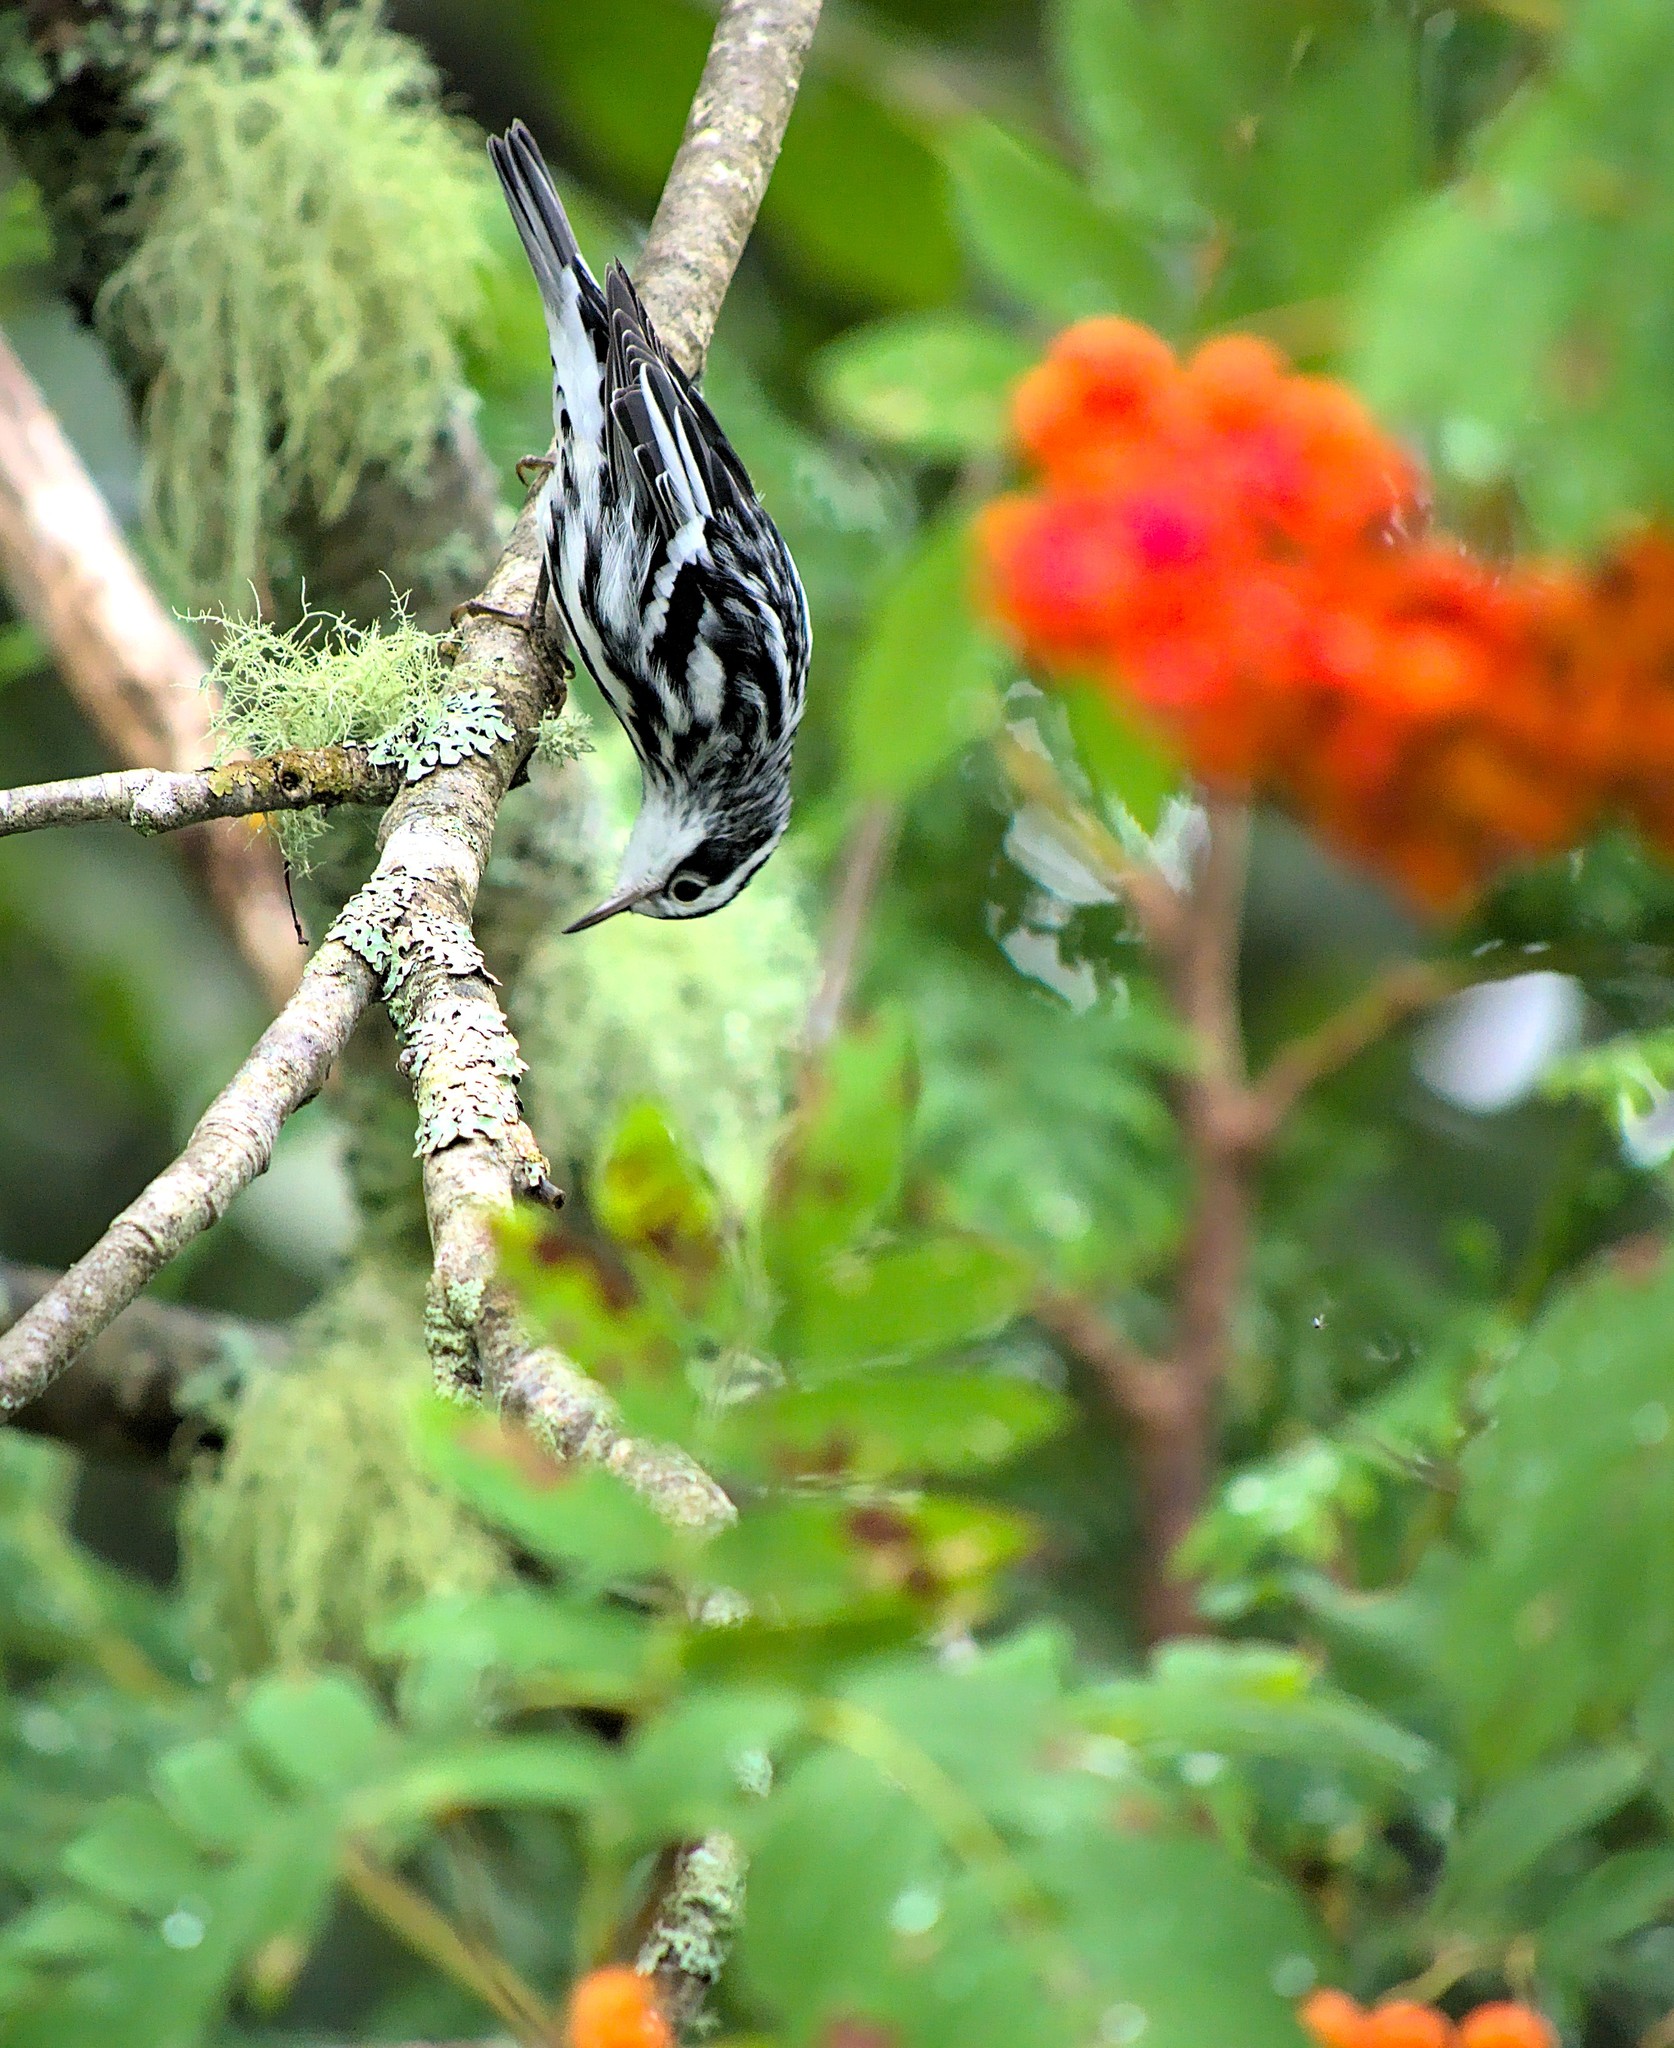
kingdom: Animalia
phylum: Chordata
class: Aves
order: Passeriformes
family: Parulidae
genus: Mniotilta
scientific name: Mniotilta varia
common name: Black-and-white warbler
